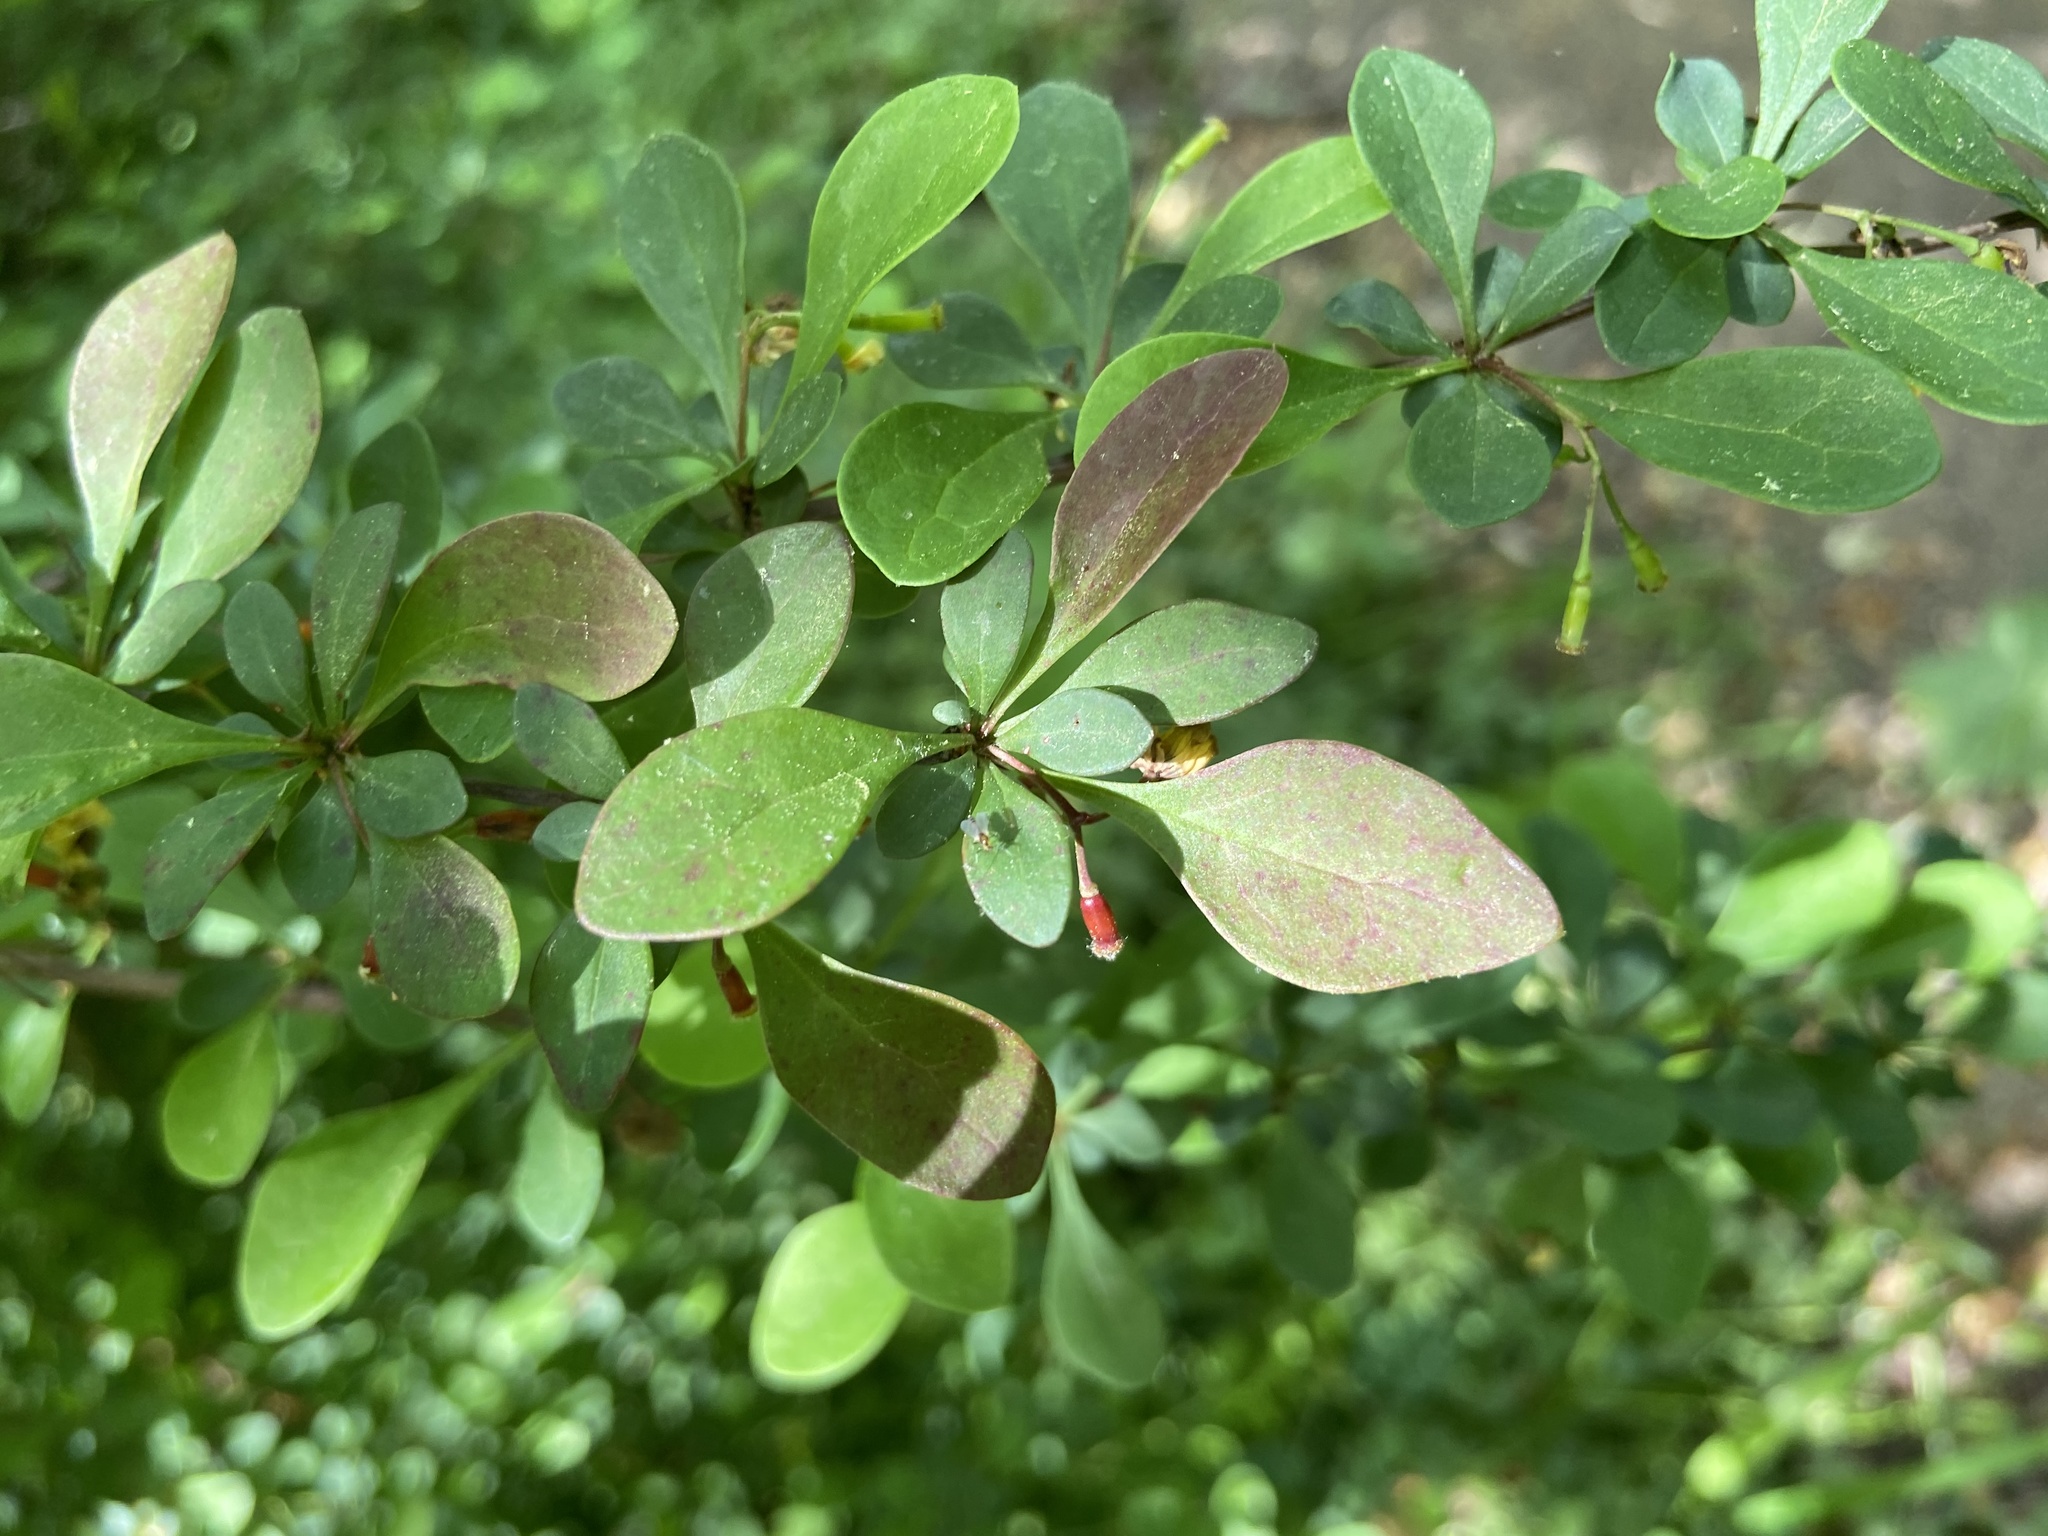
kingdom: Plantae
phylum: Tracheophyta
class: Magnoliopsida
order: Ranunculales
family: Berberidaceae
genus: Berberis
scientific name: Berberis thunbergii
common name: Japanese barberry
